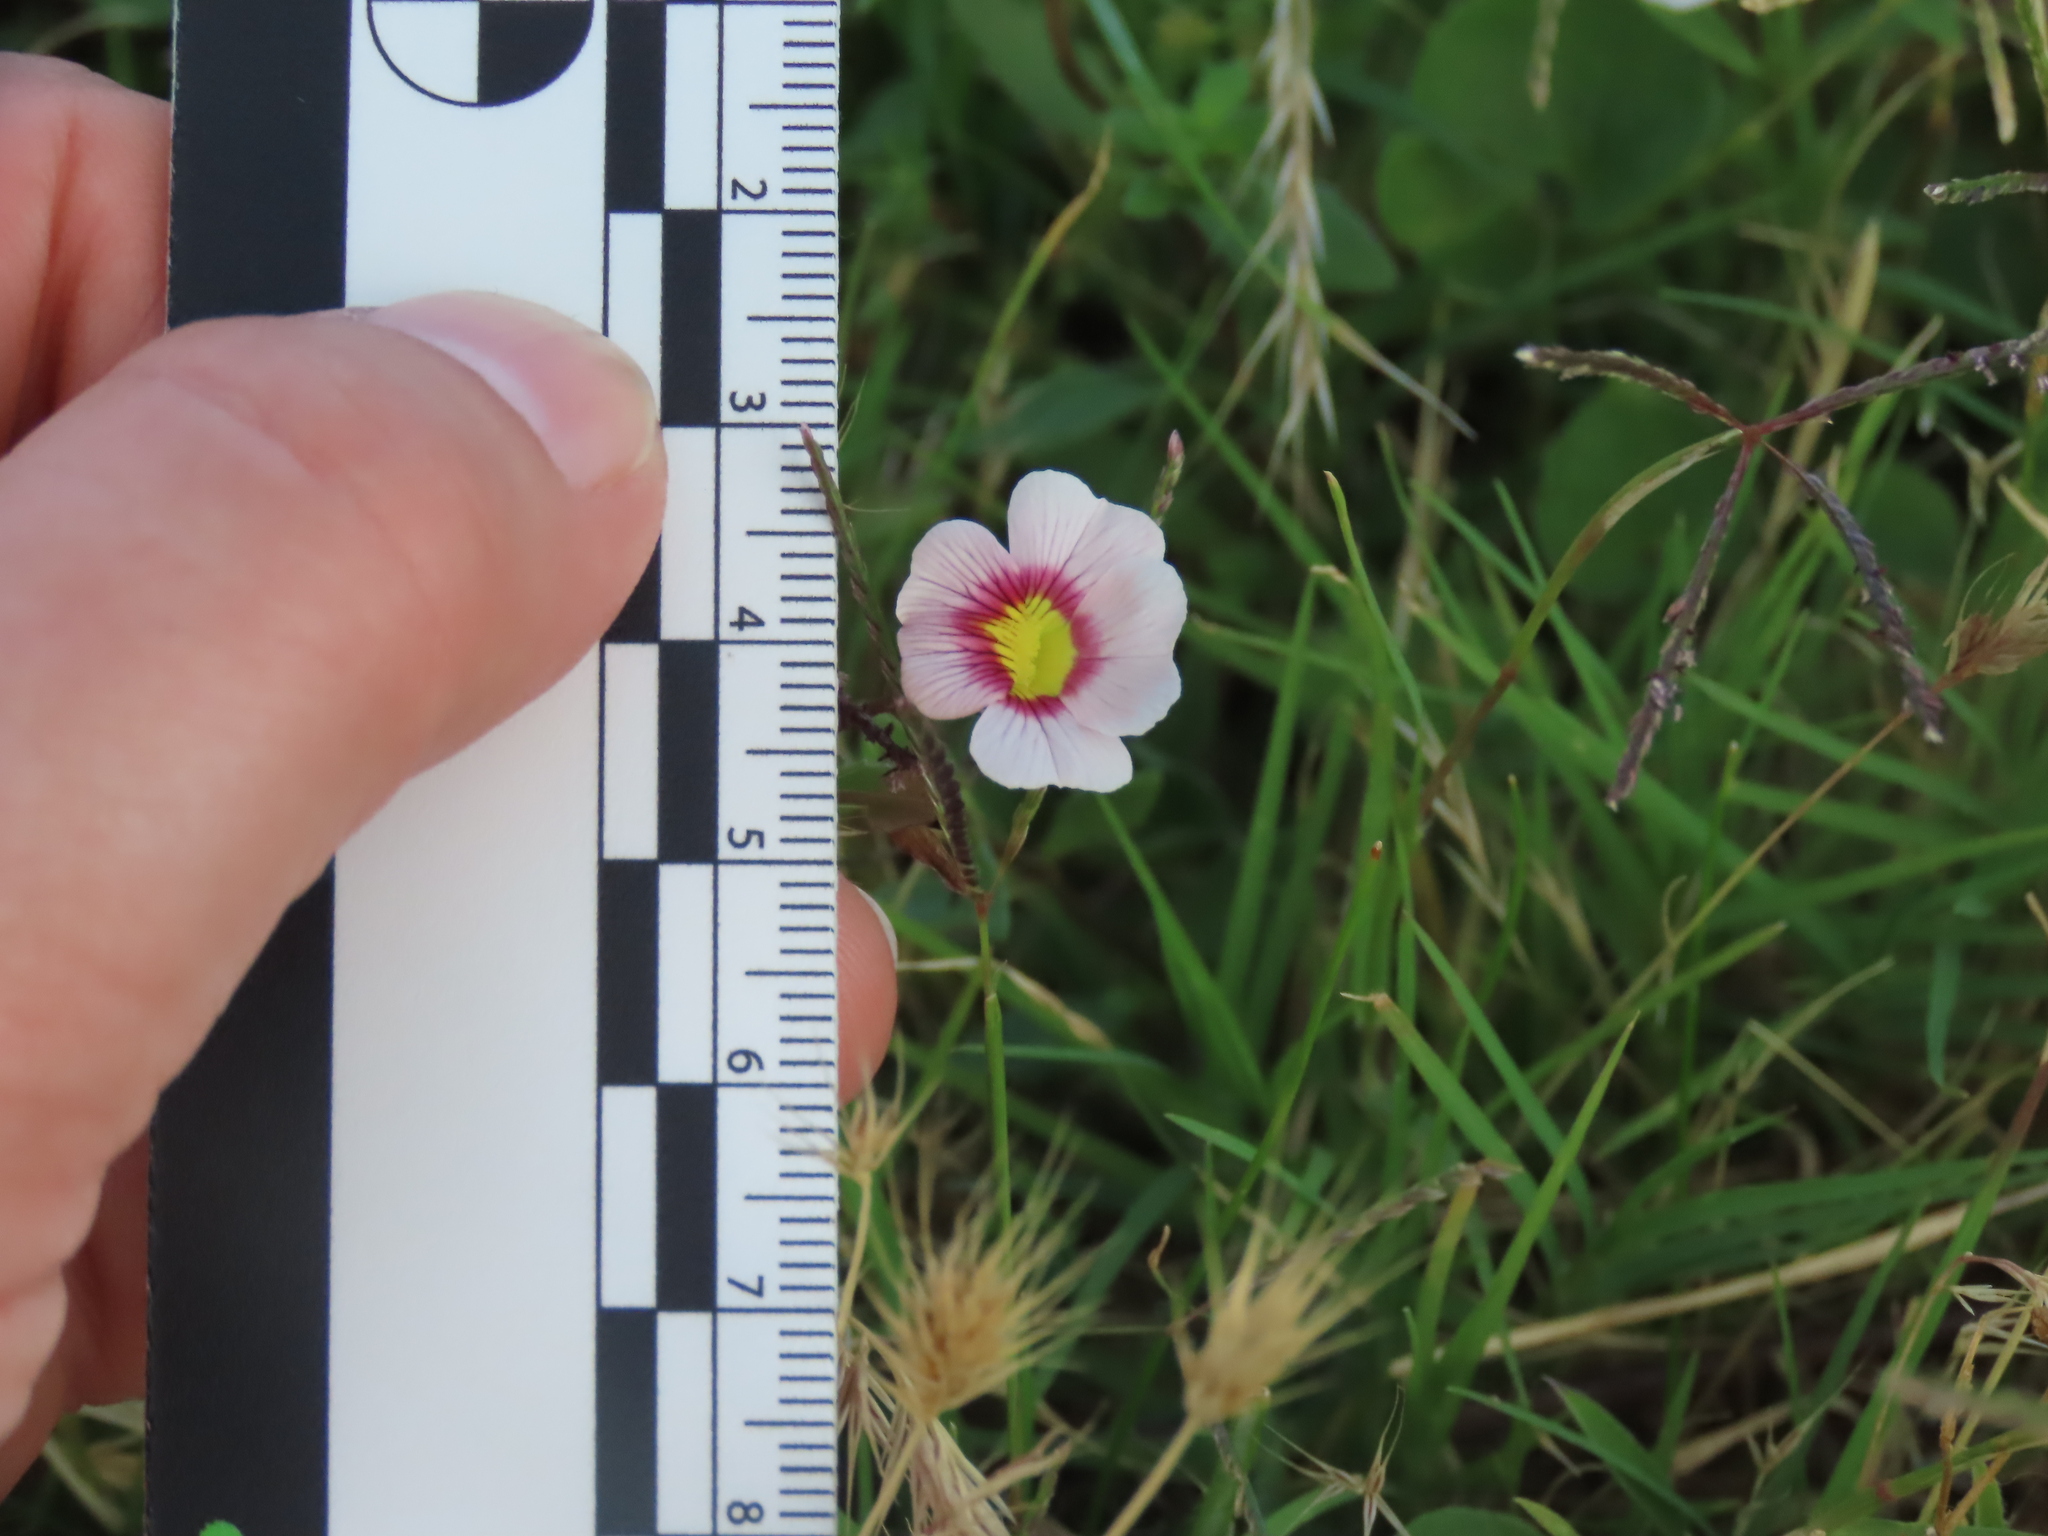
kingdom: Plantae
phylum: Tracheophyta
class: Magnoliopsida
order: Lamiales
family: Plantaginaceae
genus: Mecardonia
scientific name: Mecardonia procumbens
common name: Baby jump-up
